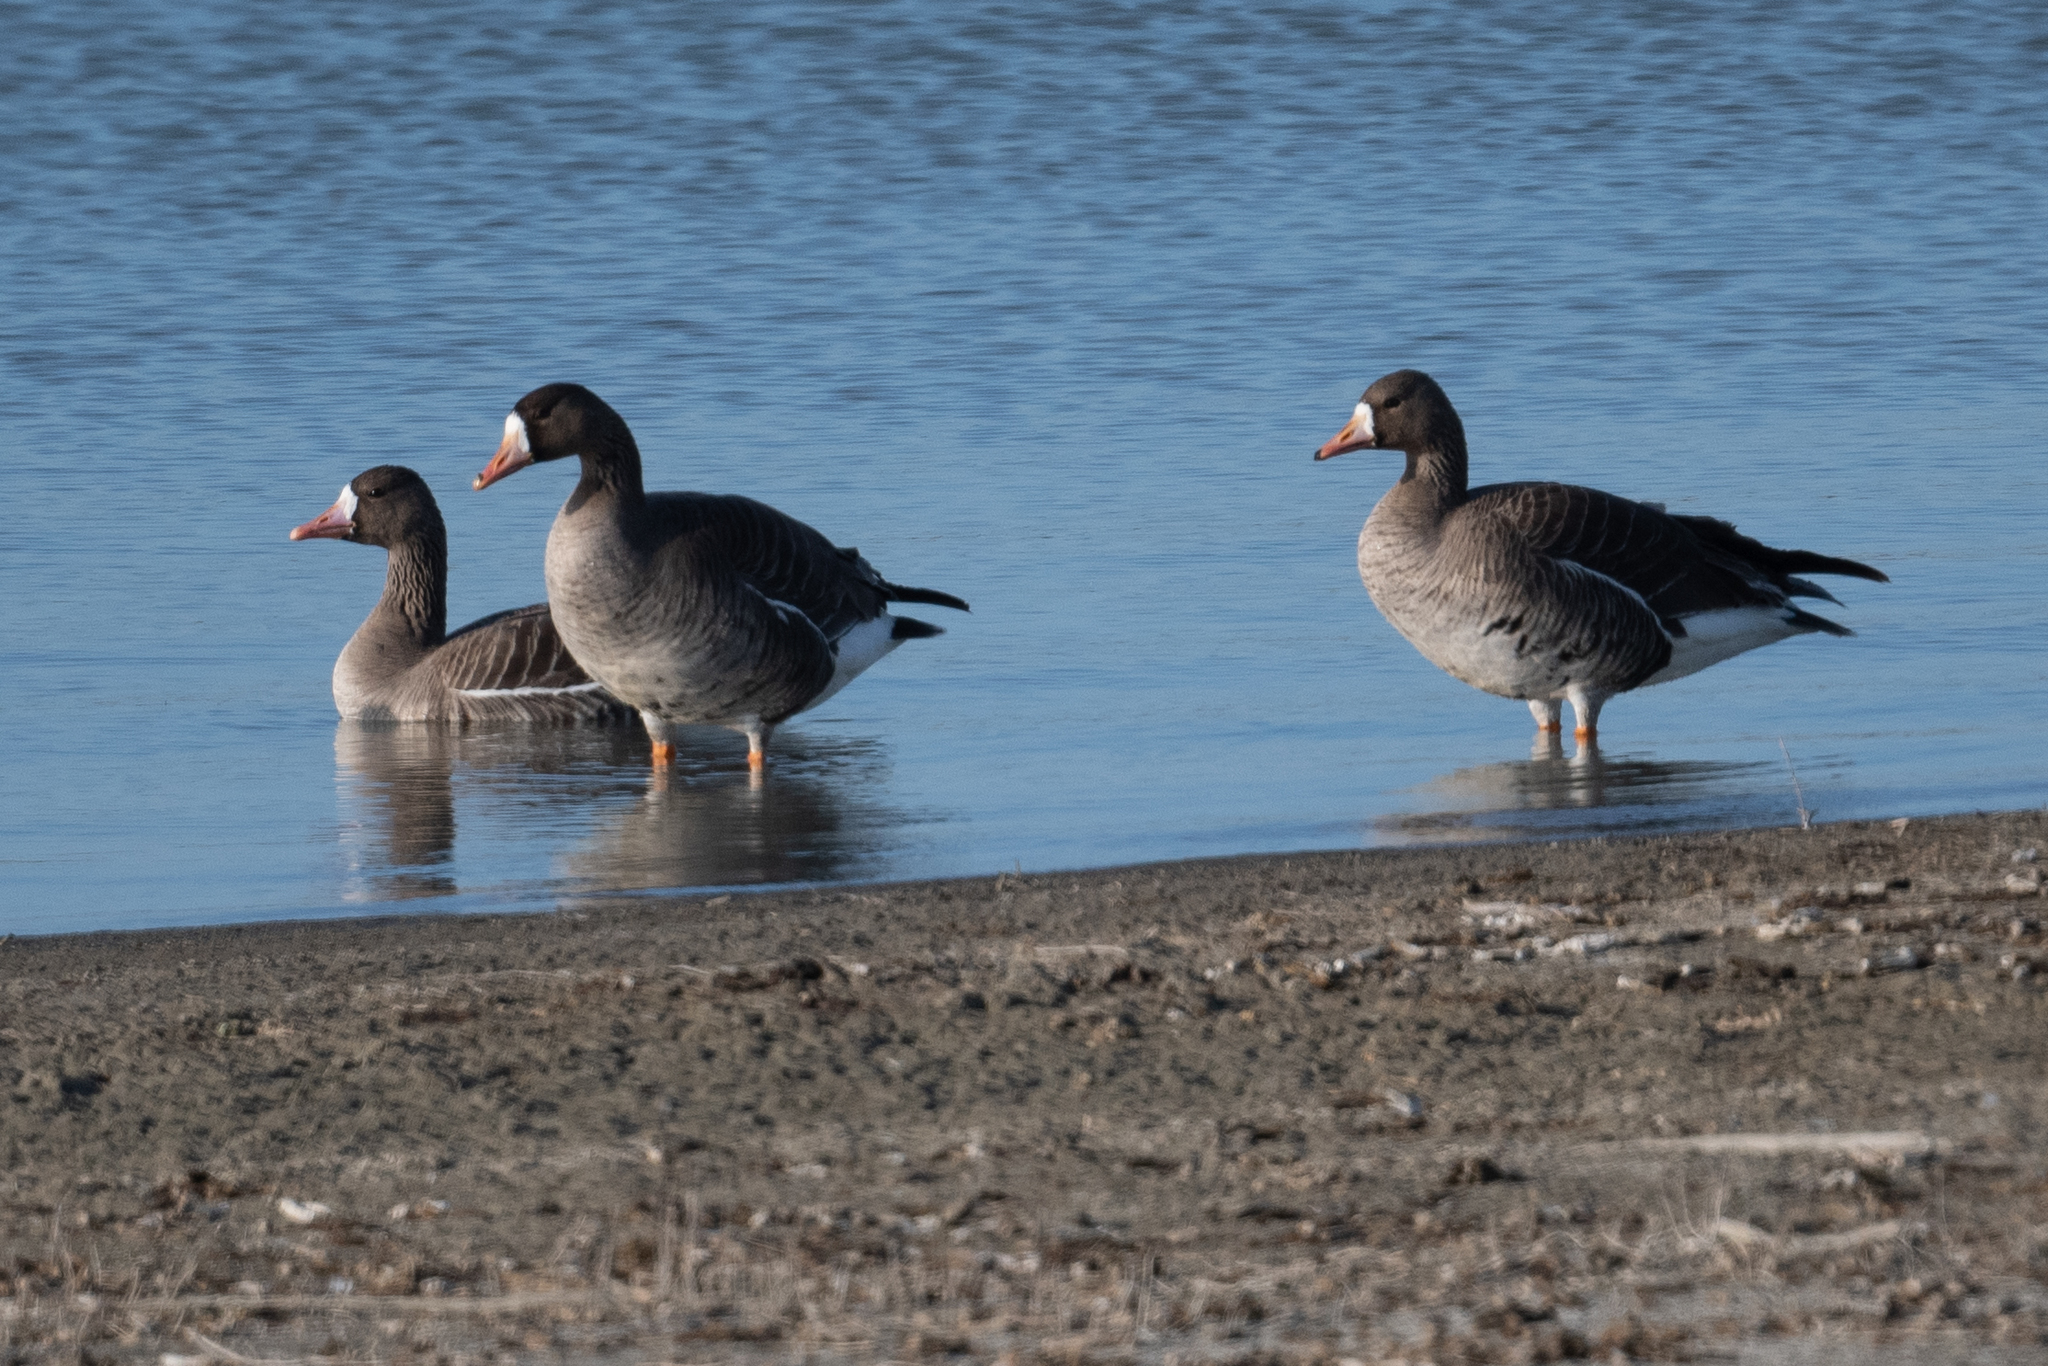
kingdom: Animalia
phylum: Chordata
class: Aves
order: Anseriformes
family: Anatidae
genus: Anser
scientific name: Anser albifrons
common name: Greater white-fronted goose
